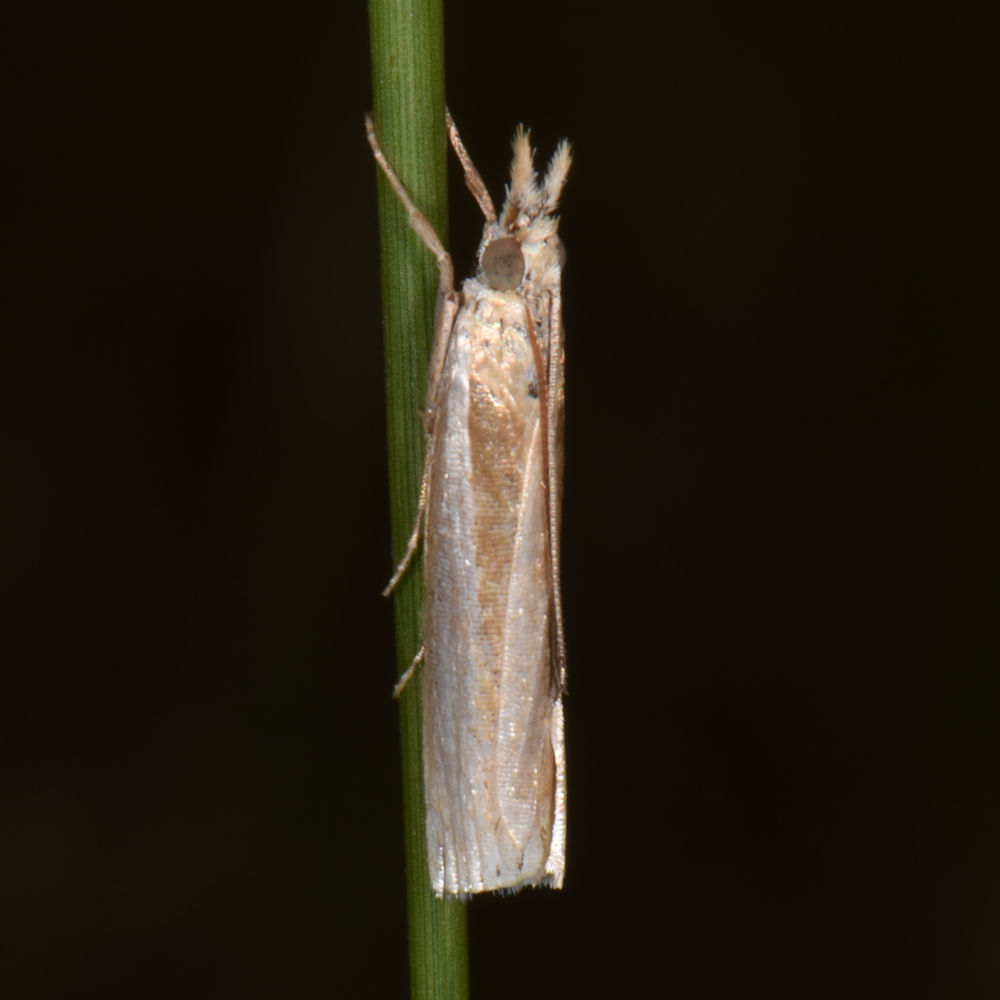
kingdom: Animalia
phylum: Arthropoda
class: Insecta
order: Lepidoptera
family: Crambidae
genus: Crambus
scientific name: Crambus praefectellus
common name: Common grass-veneer
